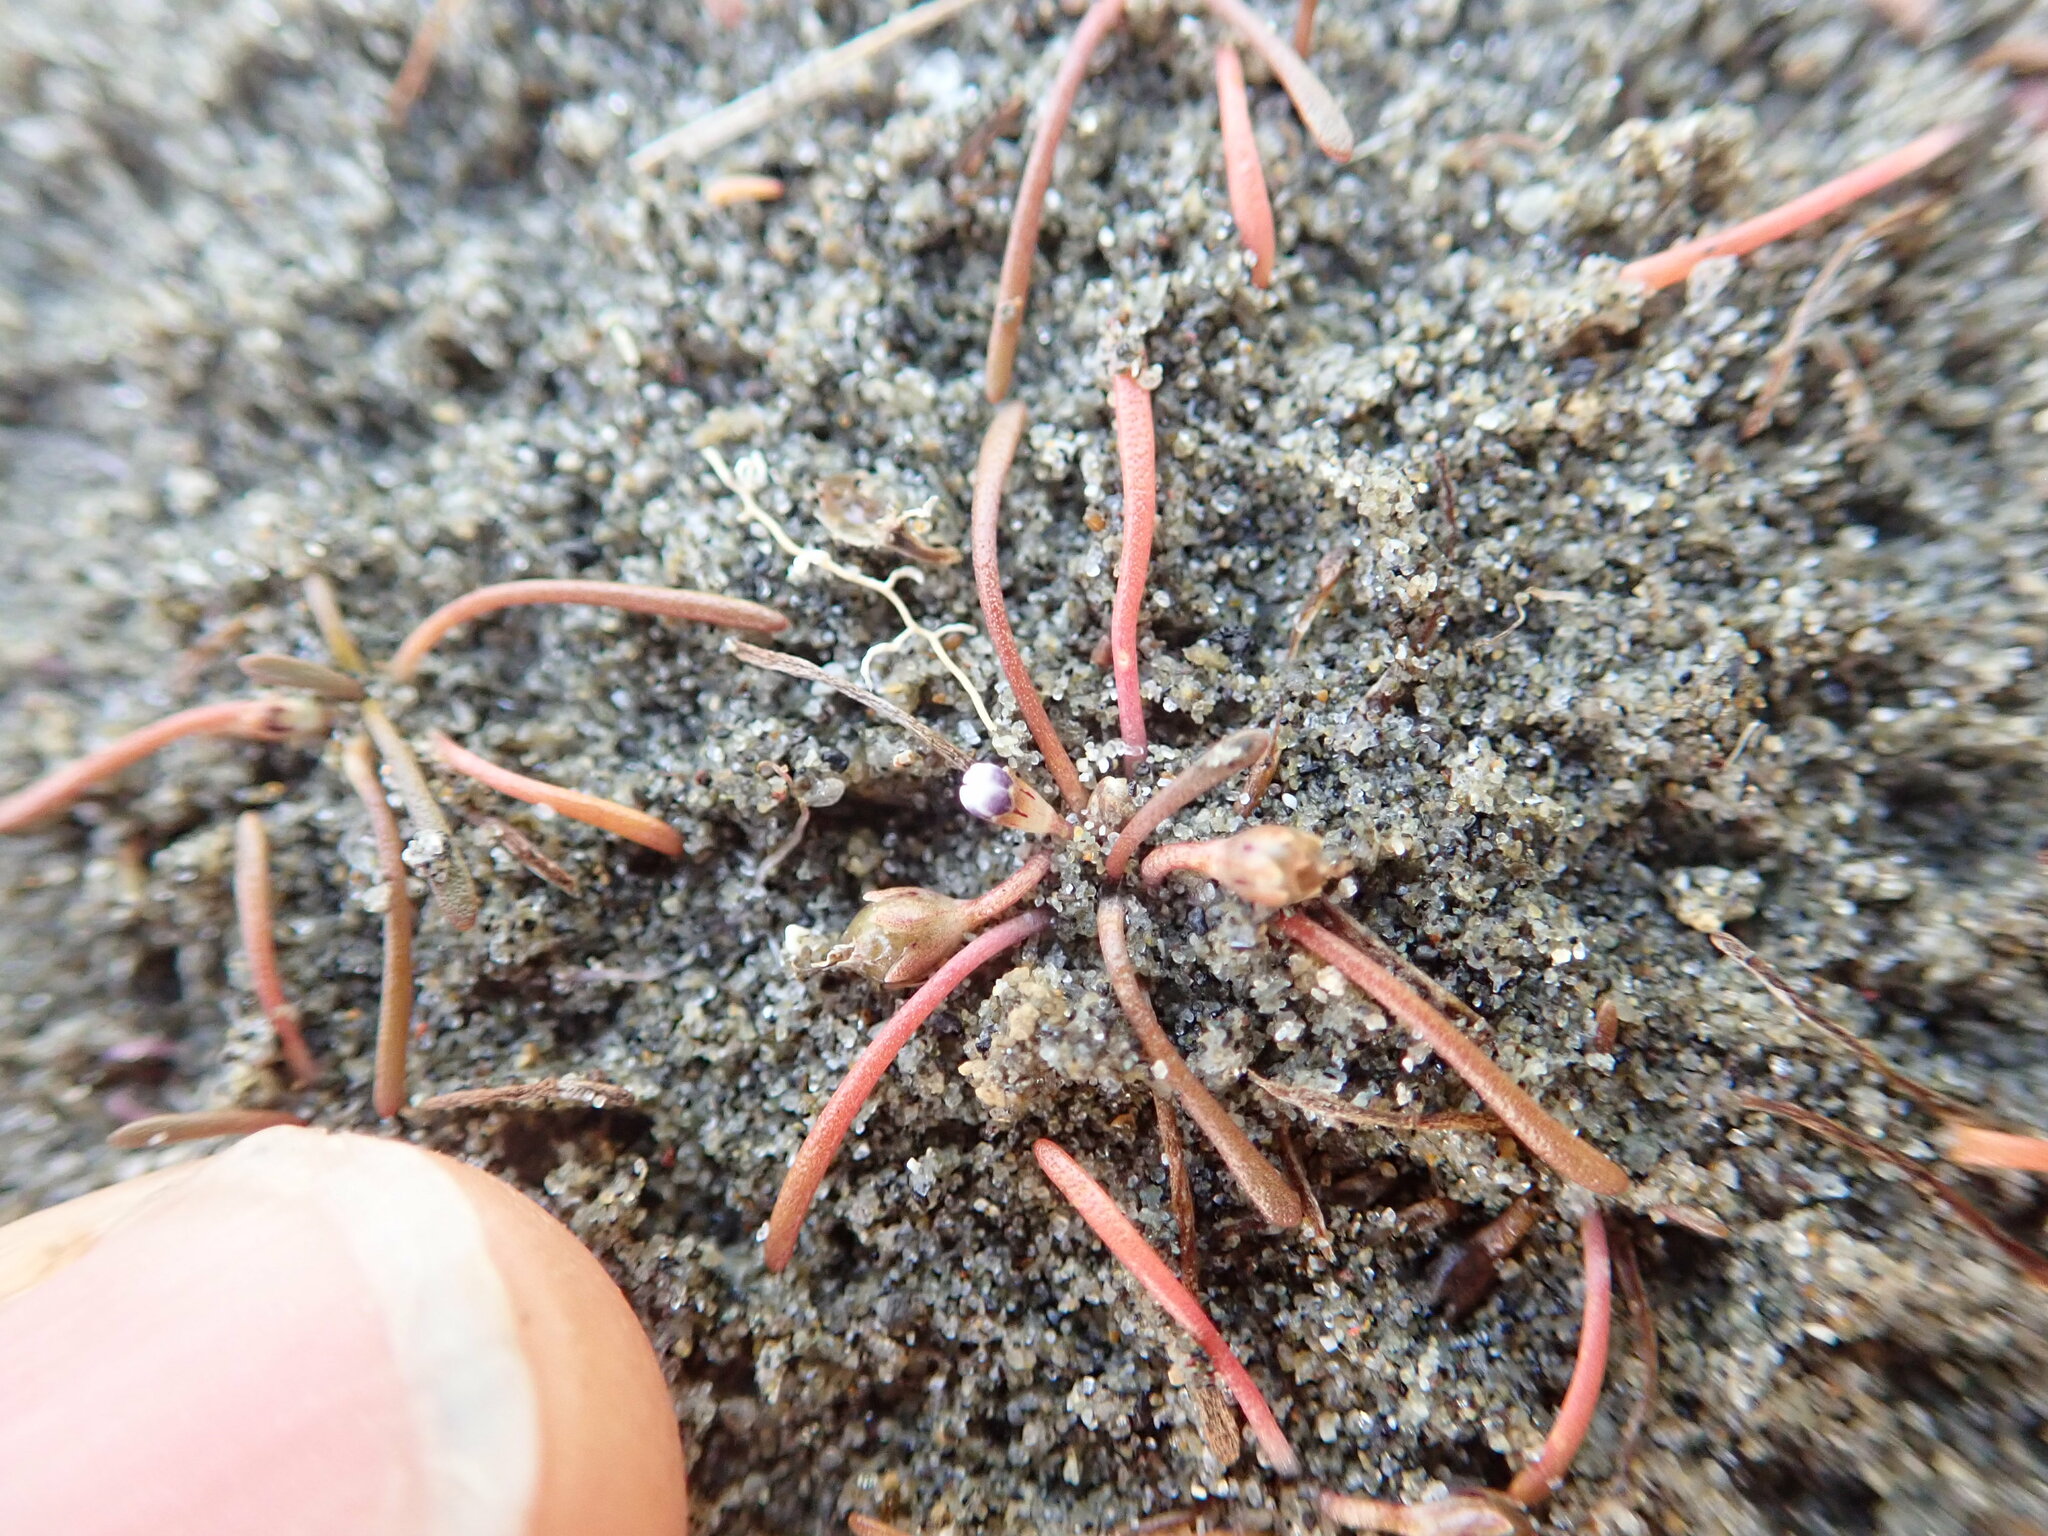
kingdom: Plantae
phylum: Tracheophyta
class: Magnoliopsida
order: Lamiales
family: Scrophulariaceae
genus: Limosella
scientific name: Limosella australis
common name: Welsh mudwort
